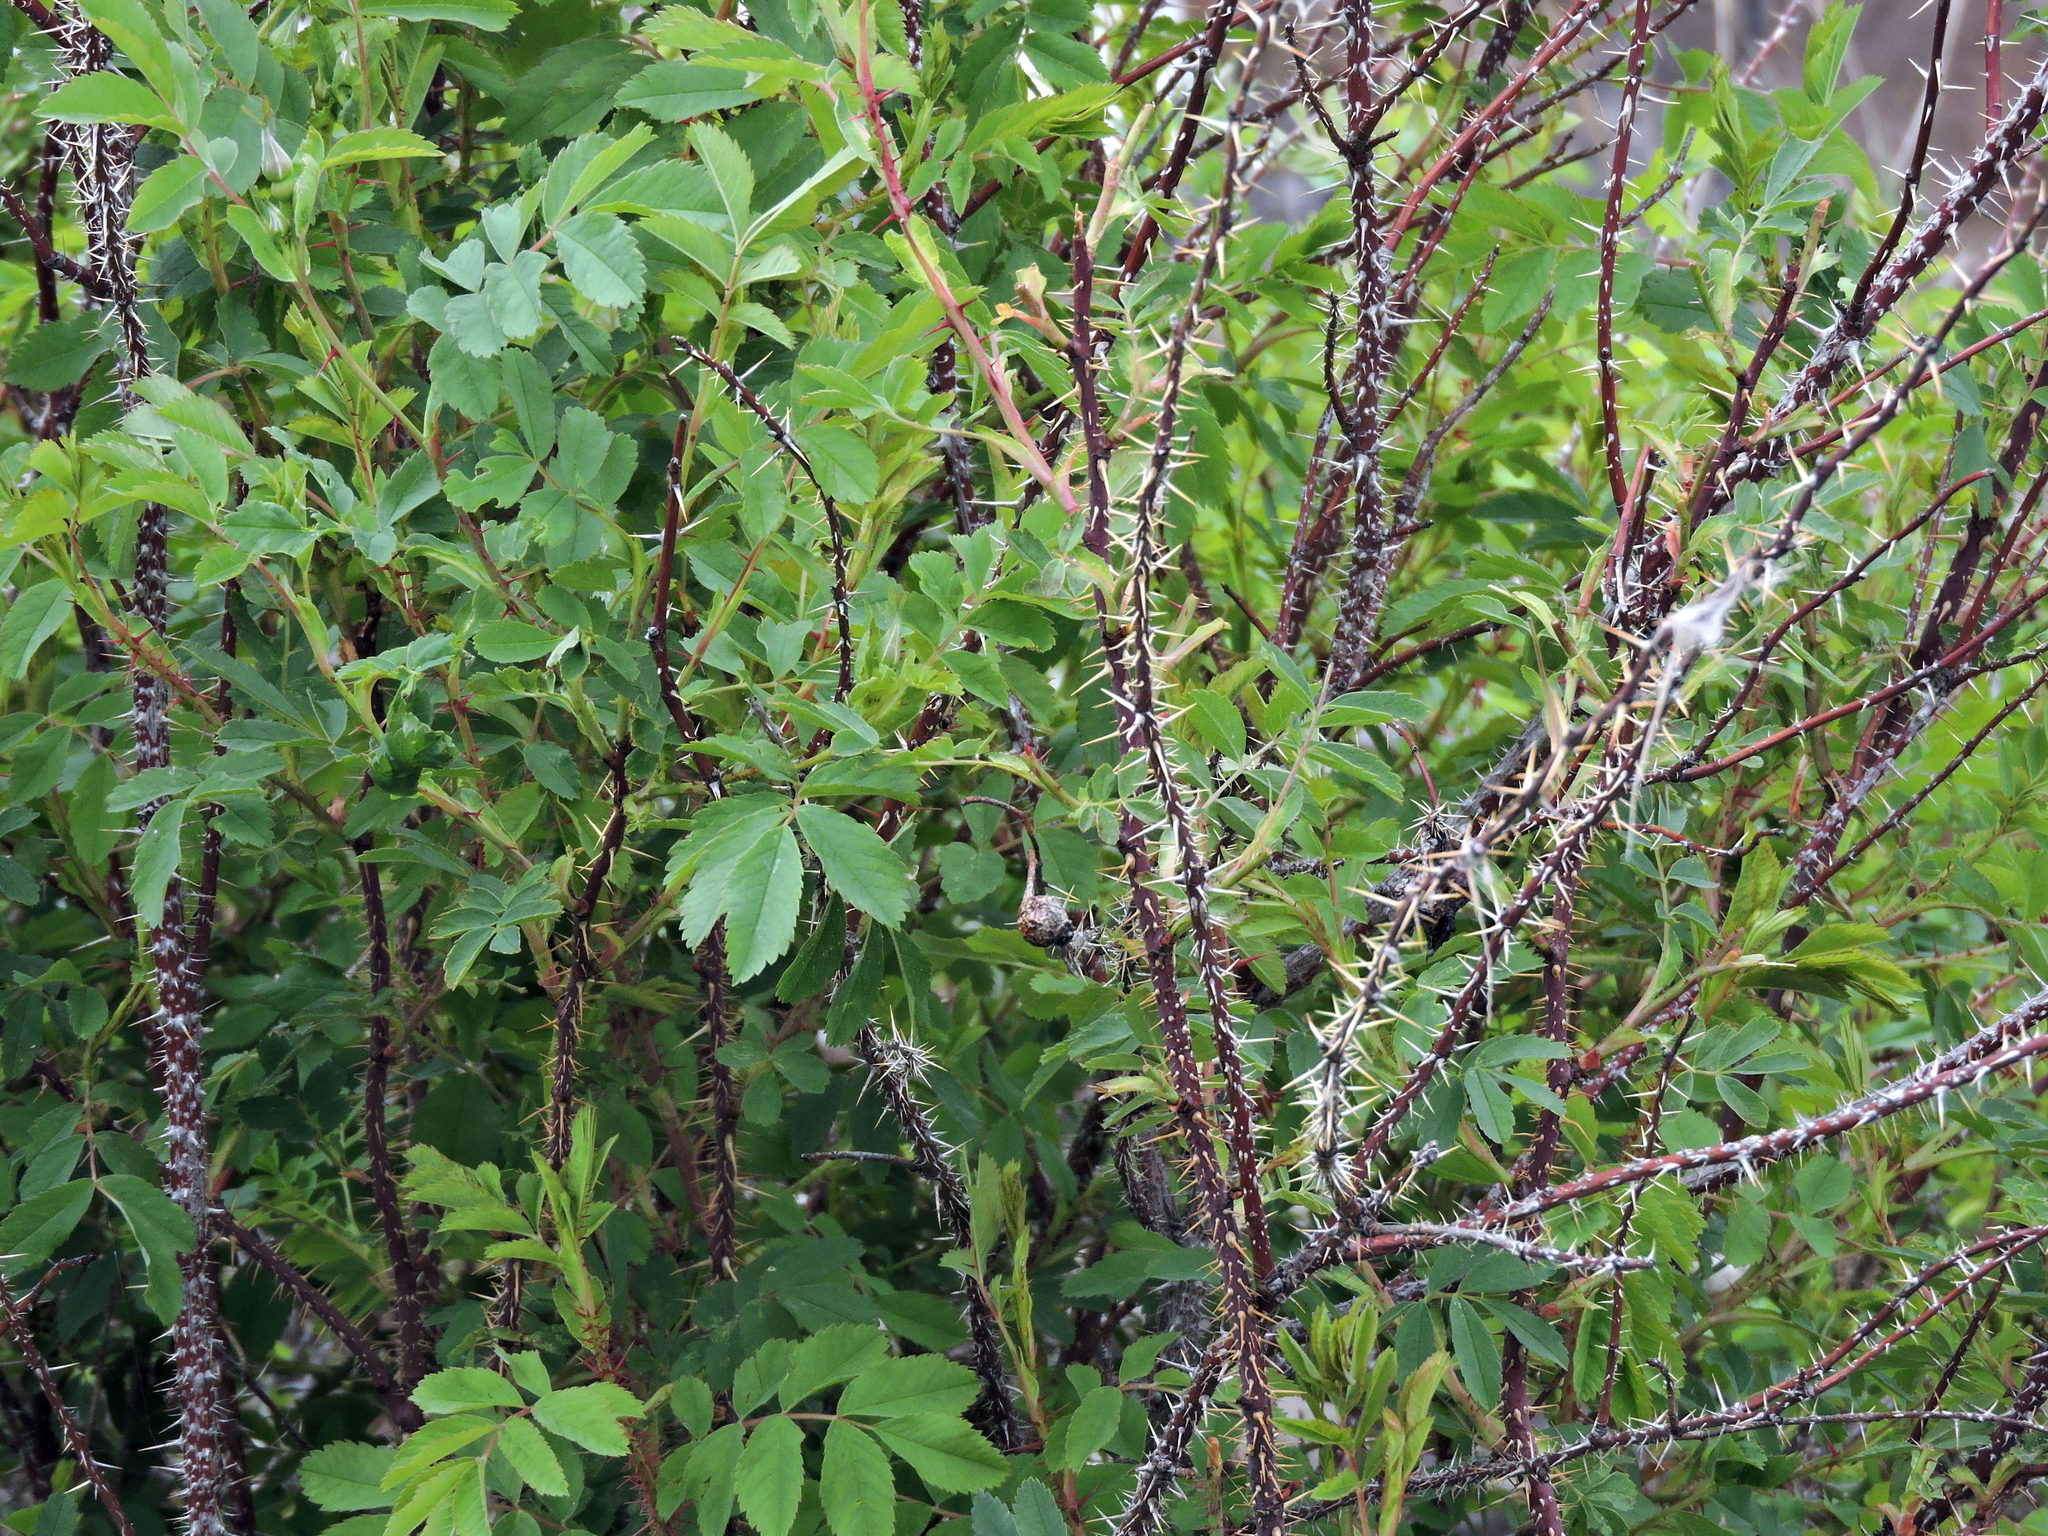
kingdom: Plantae
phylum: Tracheophyta
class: Magnoliopsida
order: Rosales
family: Rosaceae
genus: Rosa
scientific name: Rosa acicularis
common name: Prickly rose
